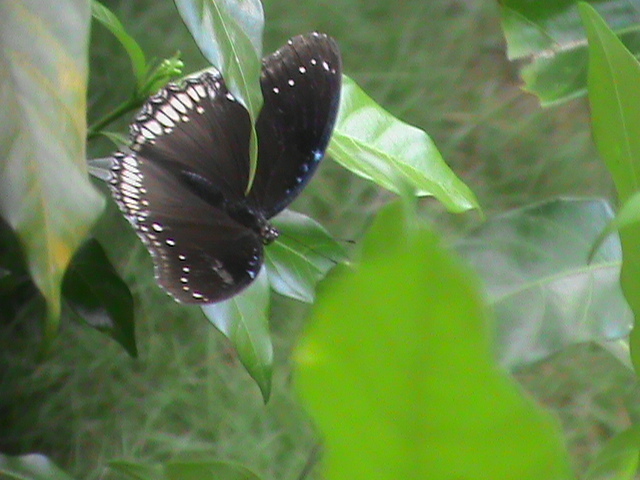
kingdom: Animalia
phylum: Arthropoda
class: Insecta
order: Lepidoptera
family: Nymphalidae
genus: Hypolimnas
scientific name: Hypolimnas bolina
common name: Great eggfly
